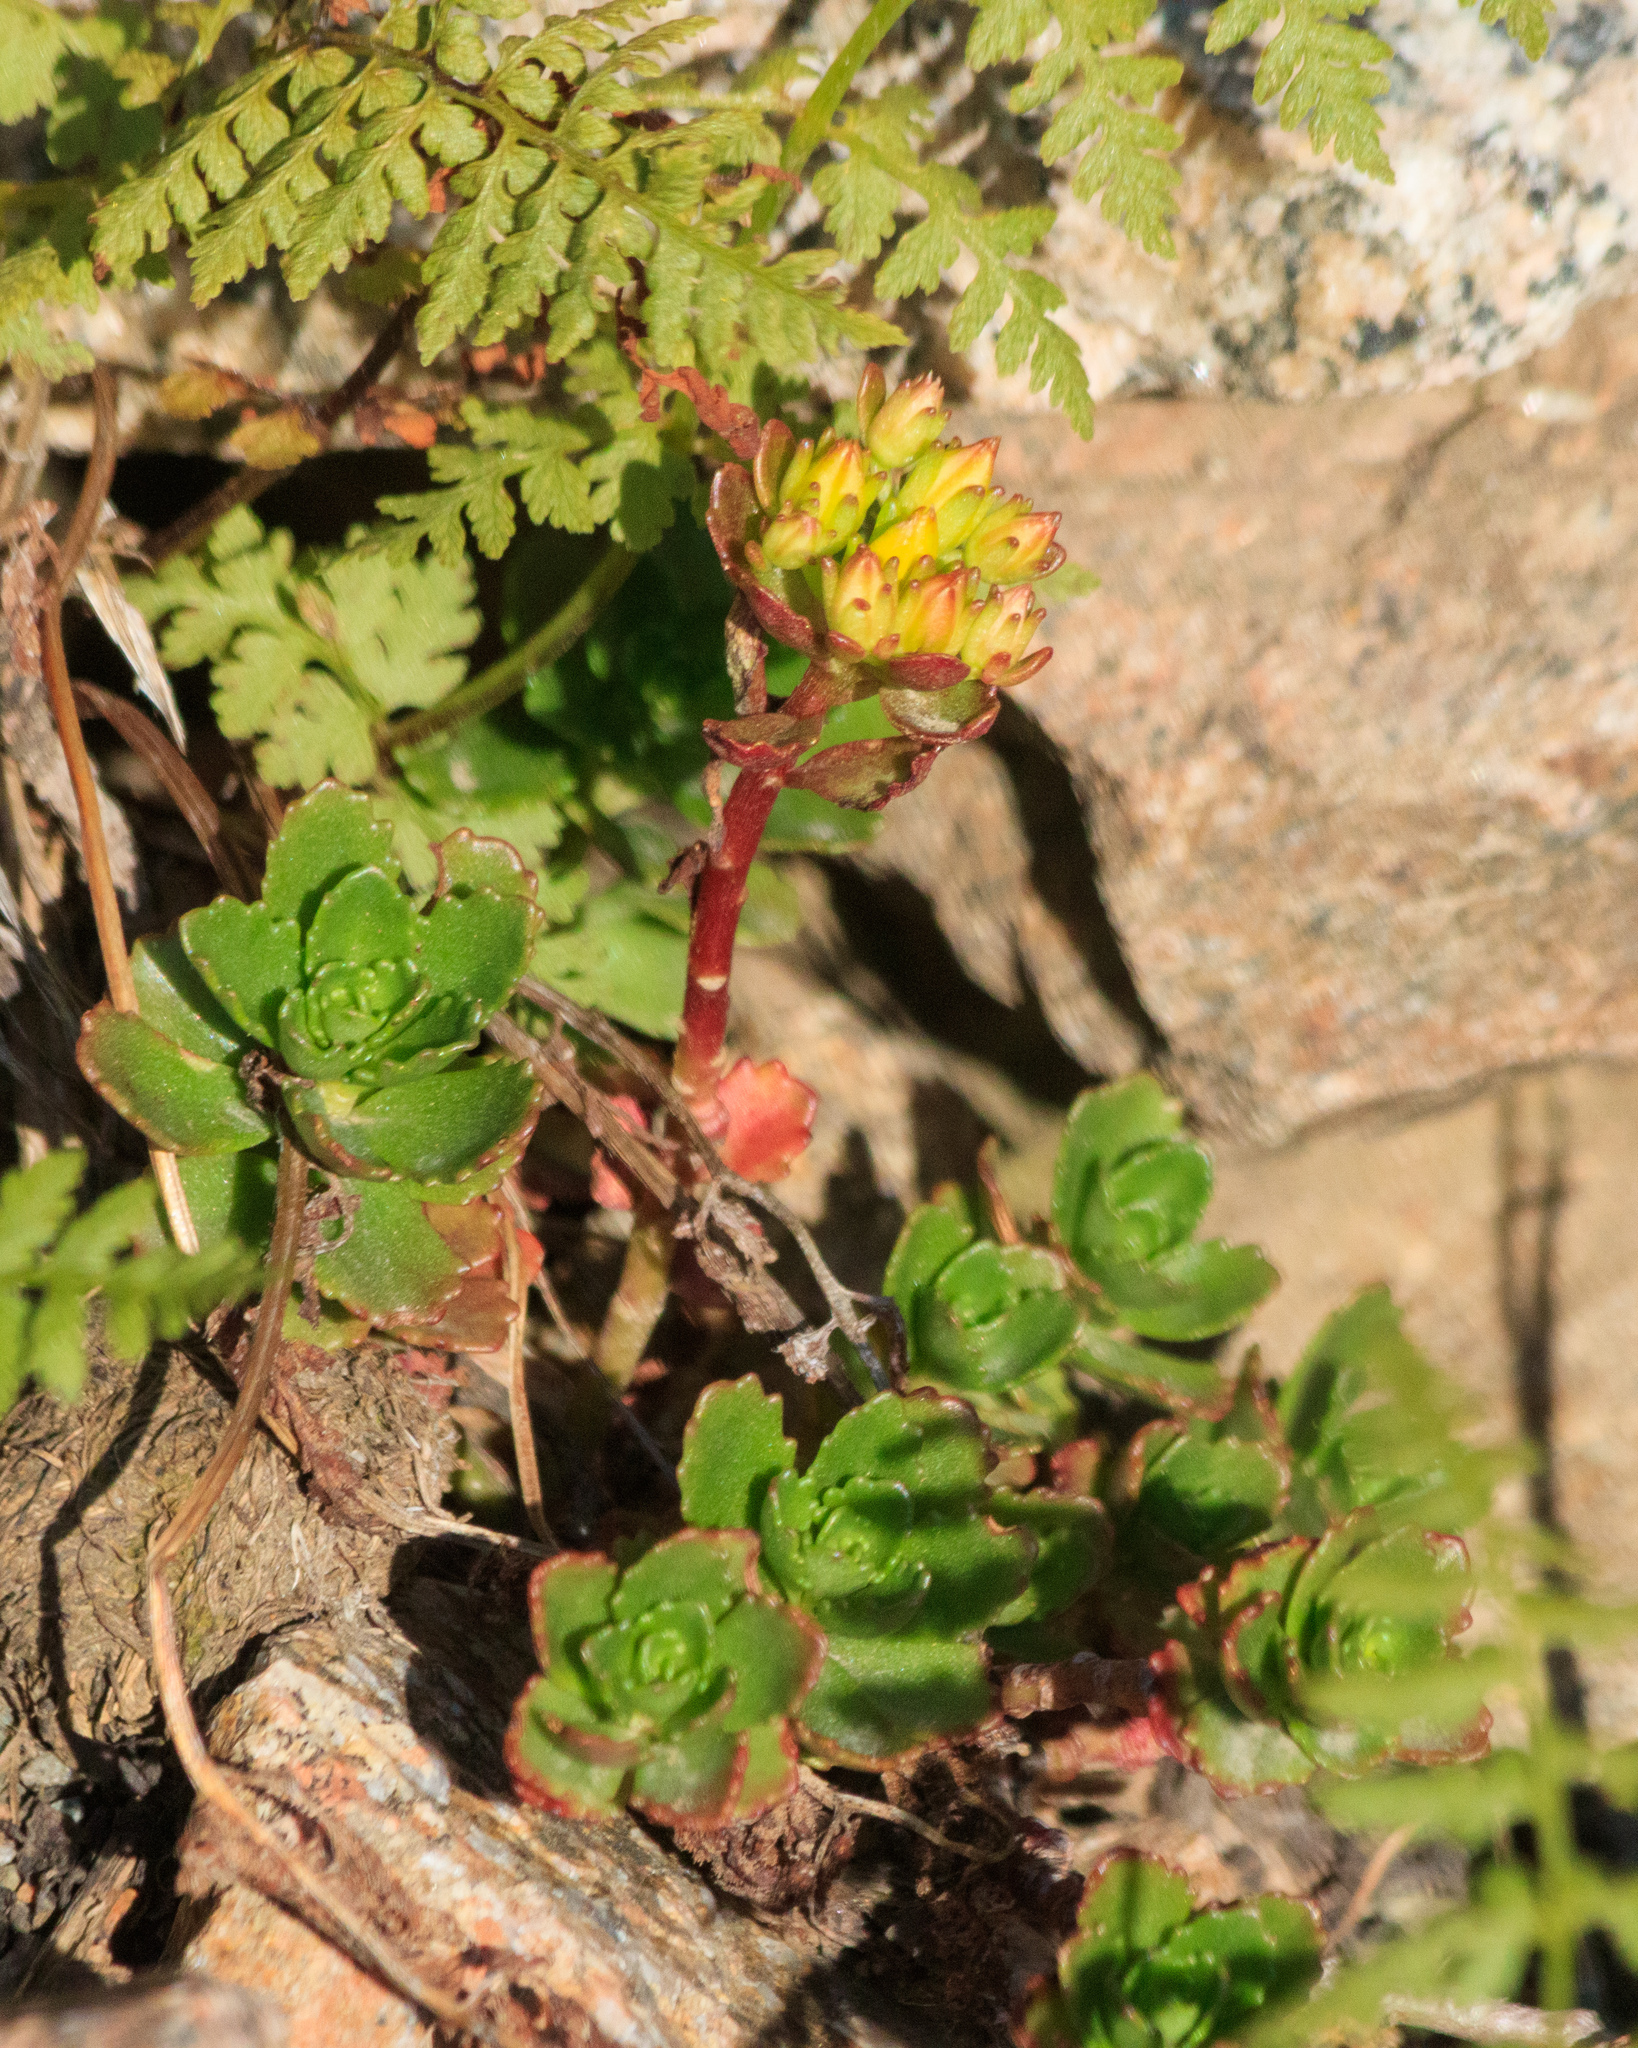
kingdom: Plantae
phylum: Tracheophyta
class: Magnoliopsida
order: Saxifragales
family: Crassulaceae
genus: Phedimus
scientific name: Phedimus hybridus
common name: Hybrid stonecrop
